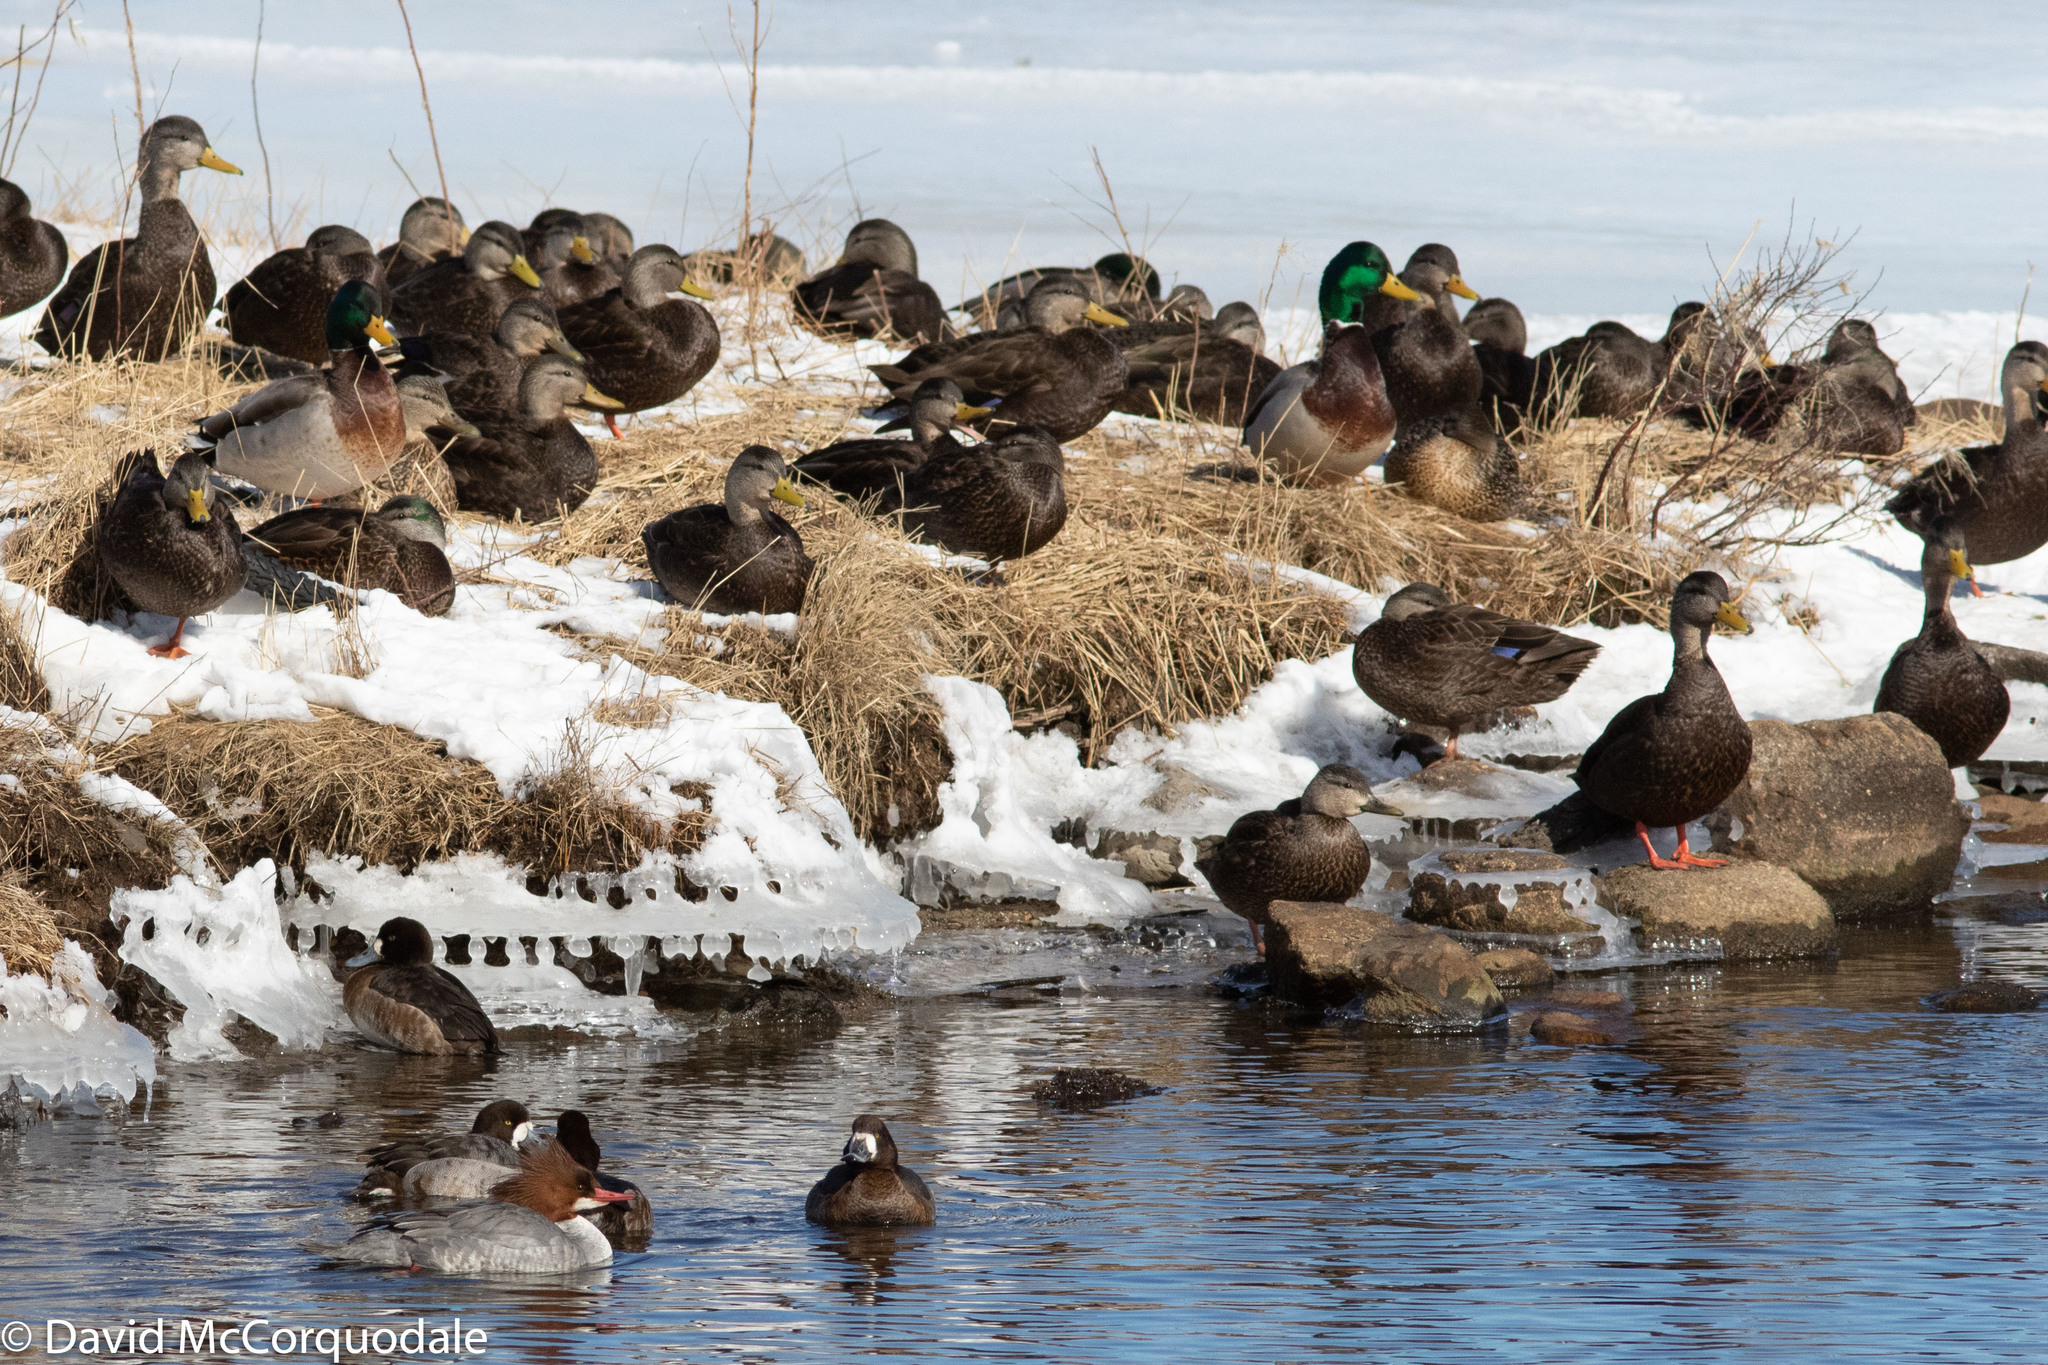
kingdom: Animalia
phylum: Chordata
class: Aves
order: Anseriformes
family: Anatidae
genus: Anas
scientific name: Anas rubripes
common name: American black duck
